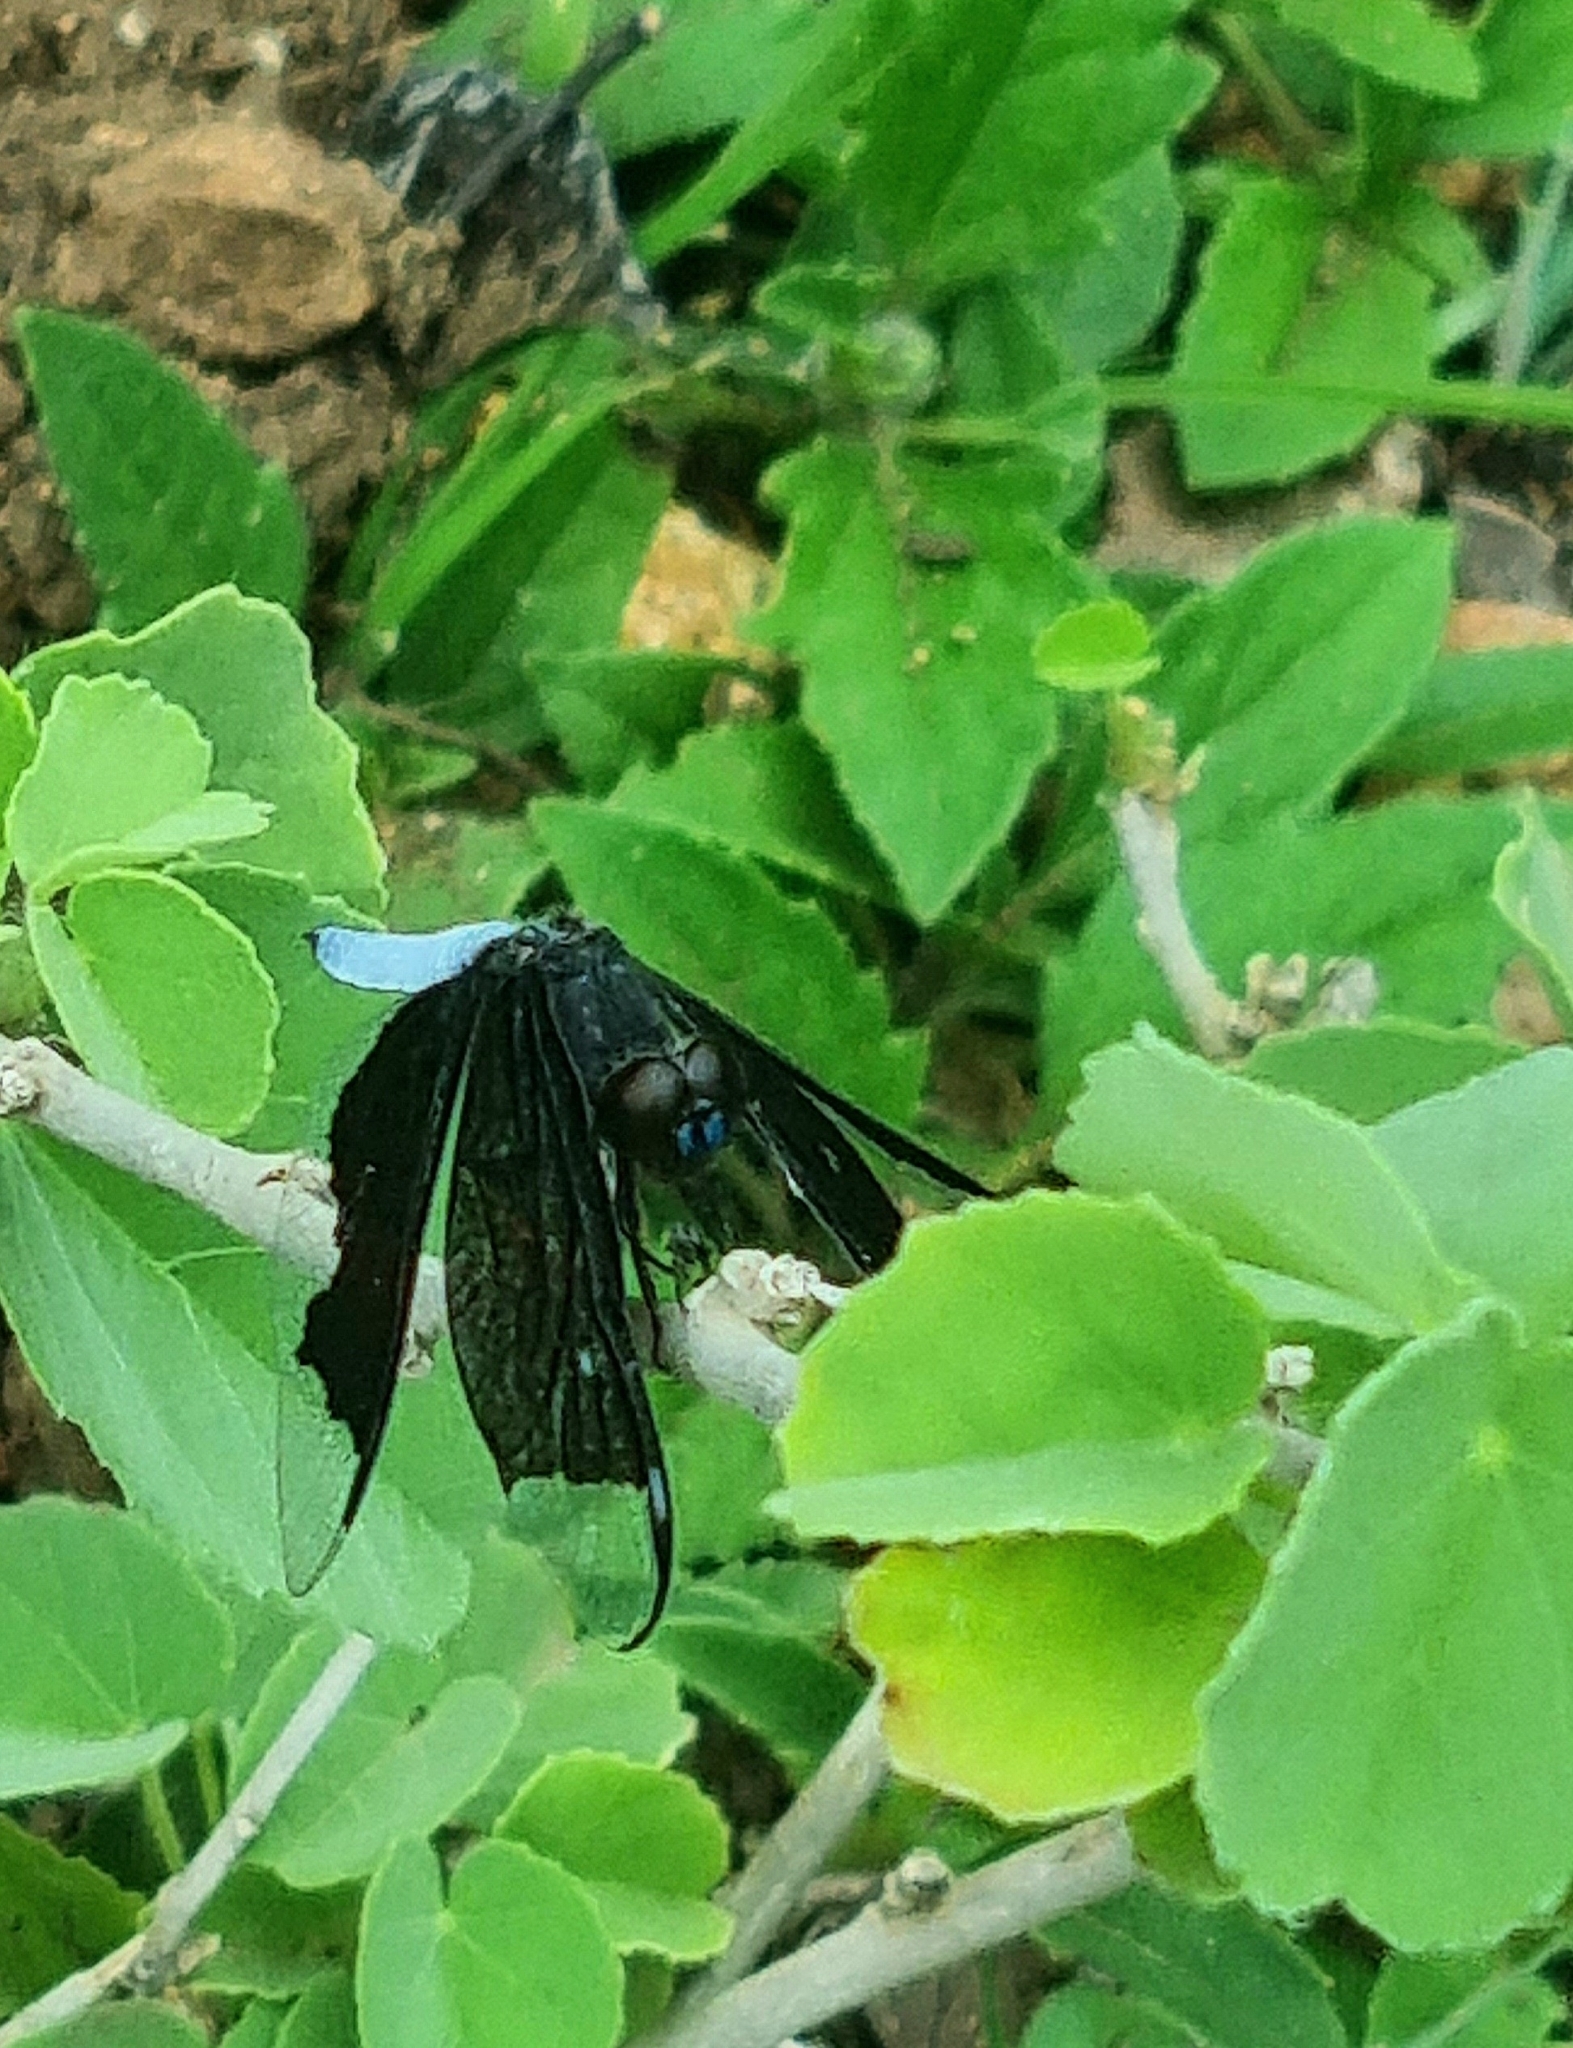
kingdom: Animalia
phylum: Arthropoda
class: Insecta
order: Odonata
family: Libellulidae
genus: Palpopleura
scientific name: Palpopleura lucia
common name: Lucia widow
